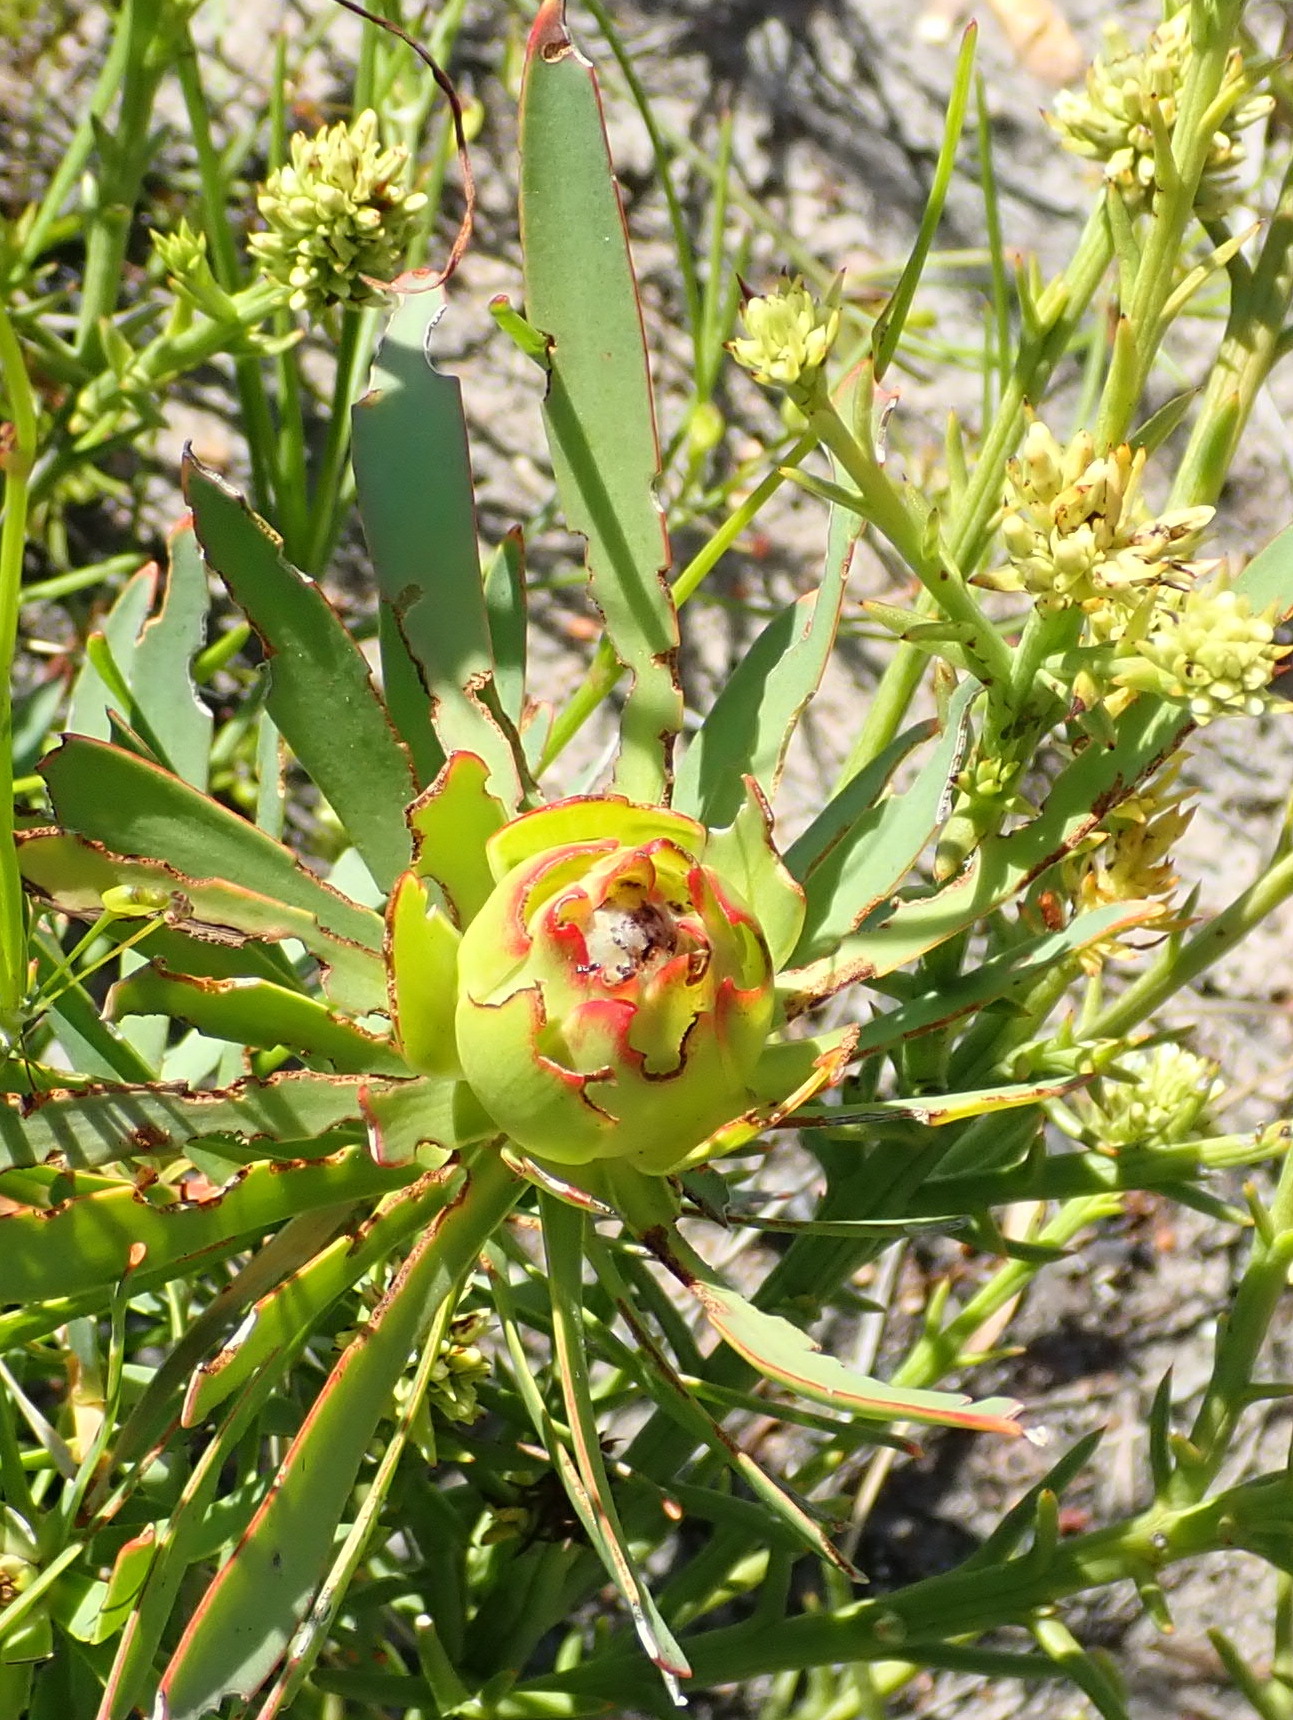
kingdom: Plantae
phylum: Tracheophyta
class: Magnoliopsida
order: Proteales
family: Proteaceae
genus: Leucadendron
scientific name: Leucadendron salignum
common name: Common sunshine conebush
